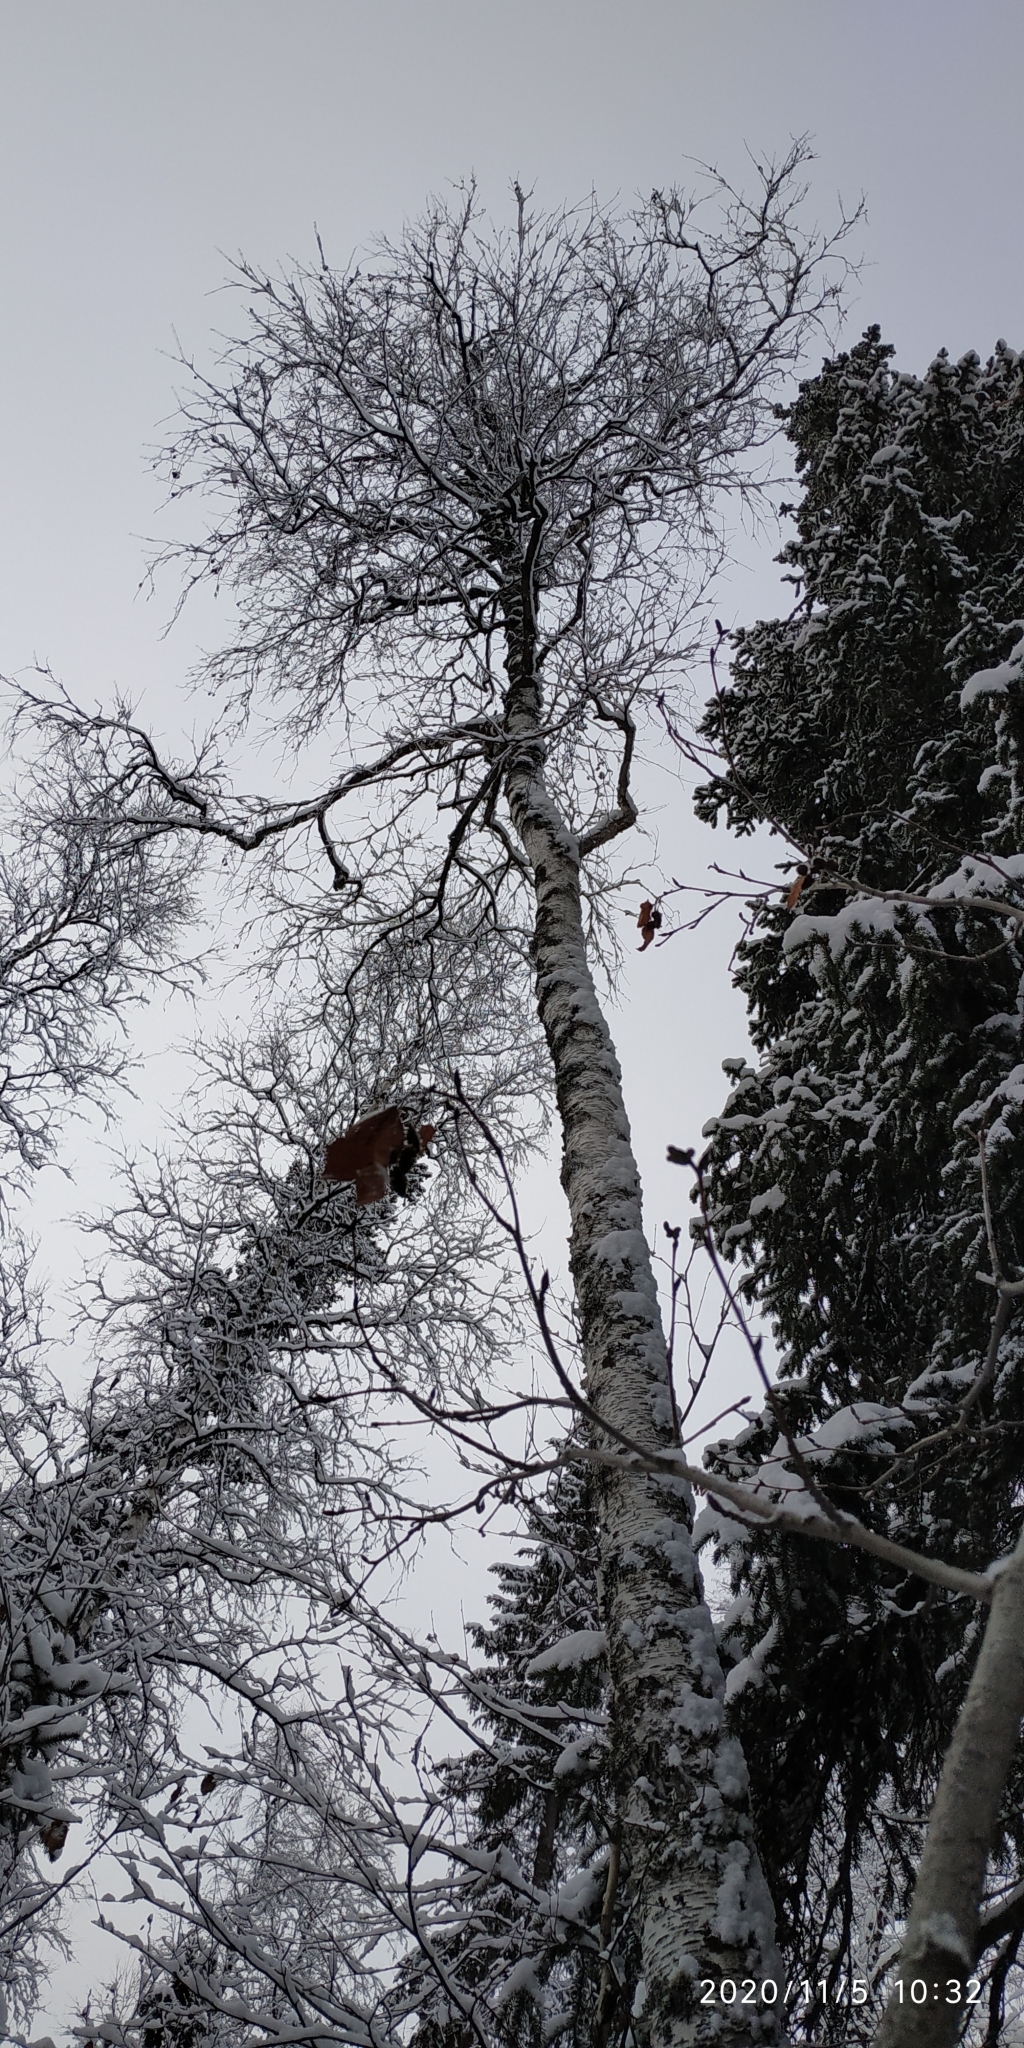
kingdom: Plantae
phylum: Tracheophyta
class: Magnoliopsida
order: Fagales
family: Betulaceae
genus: Betula
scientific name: Betula pubescens
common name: Downy birch
